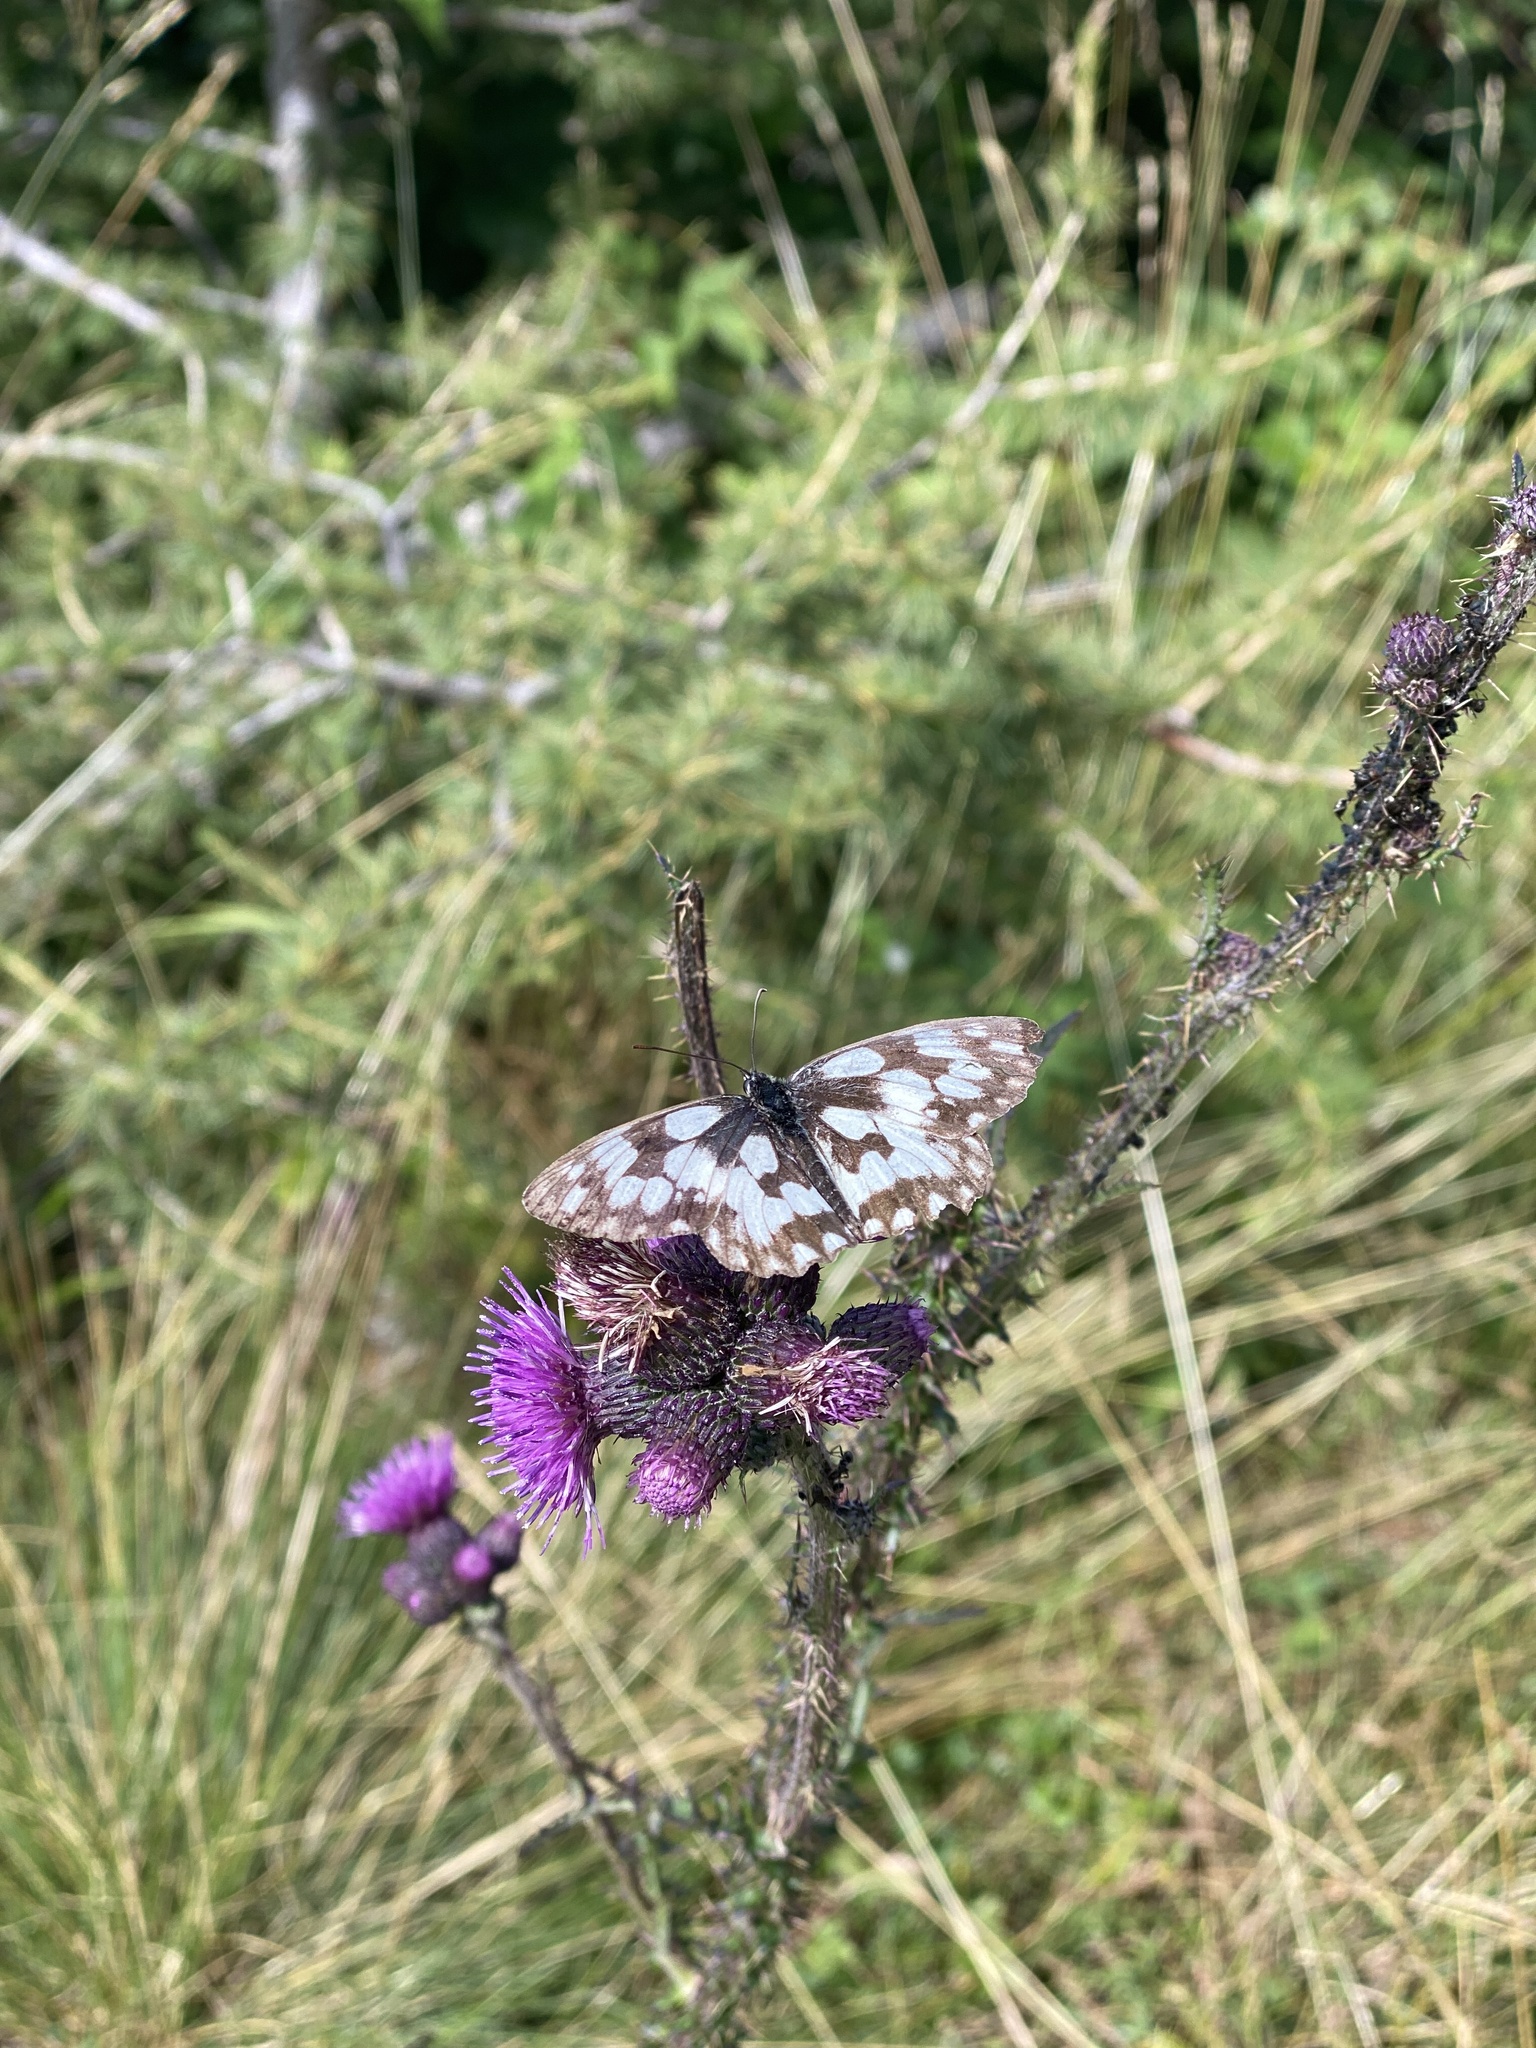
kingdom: Animalia
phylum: Arthropoda
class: Insecta
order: Lepidoptera
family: Nymphalidae
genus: Melanargia
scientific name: Melanargia galathea
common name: Marbled white
